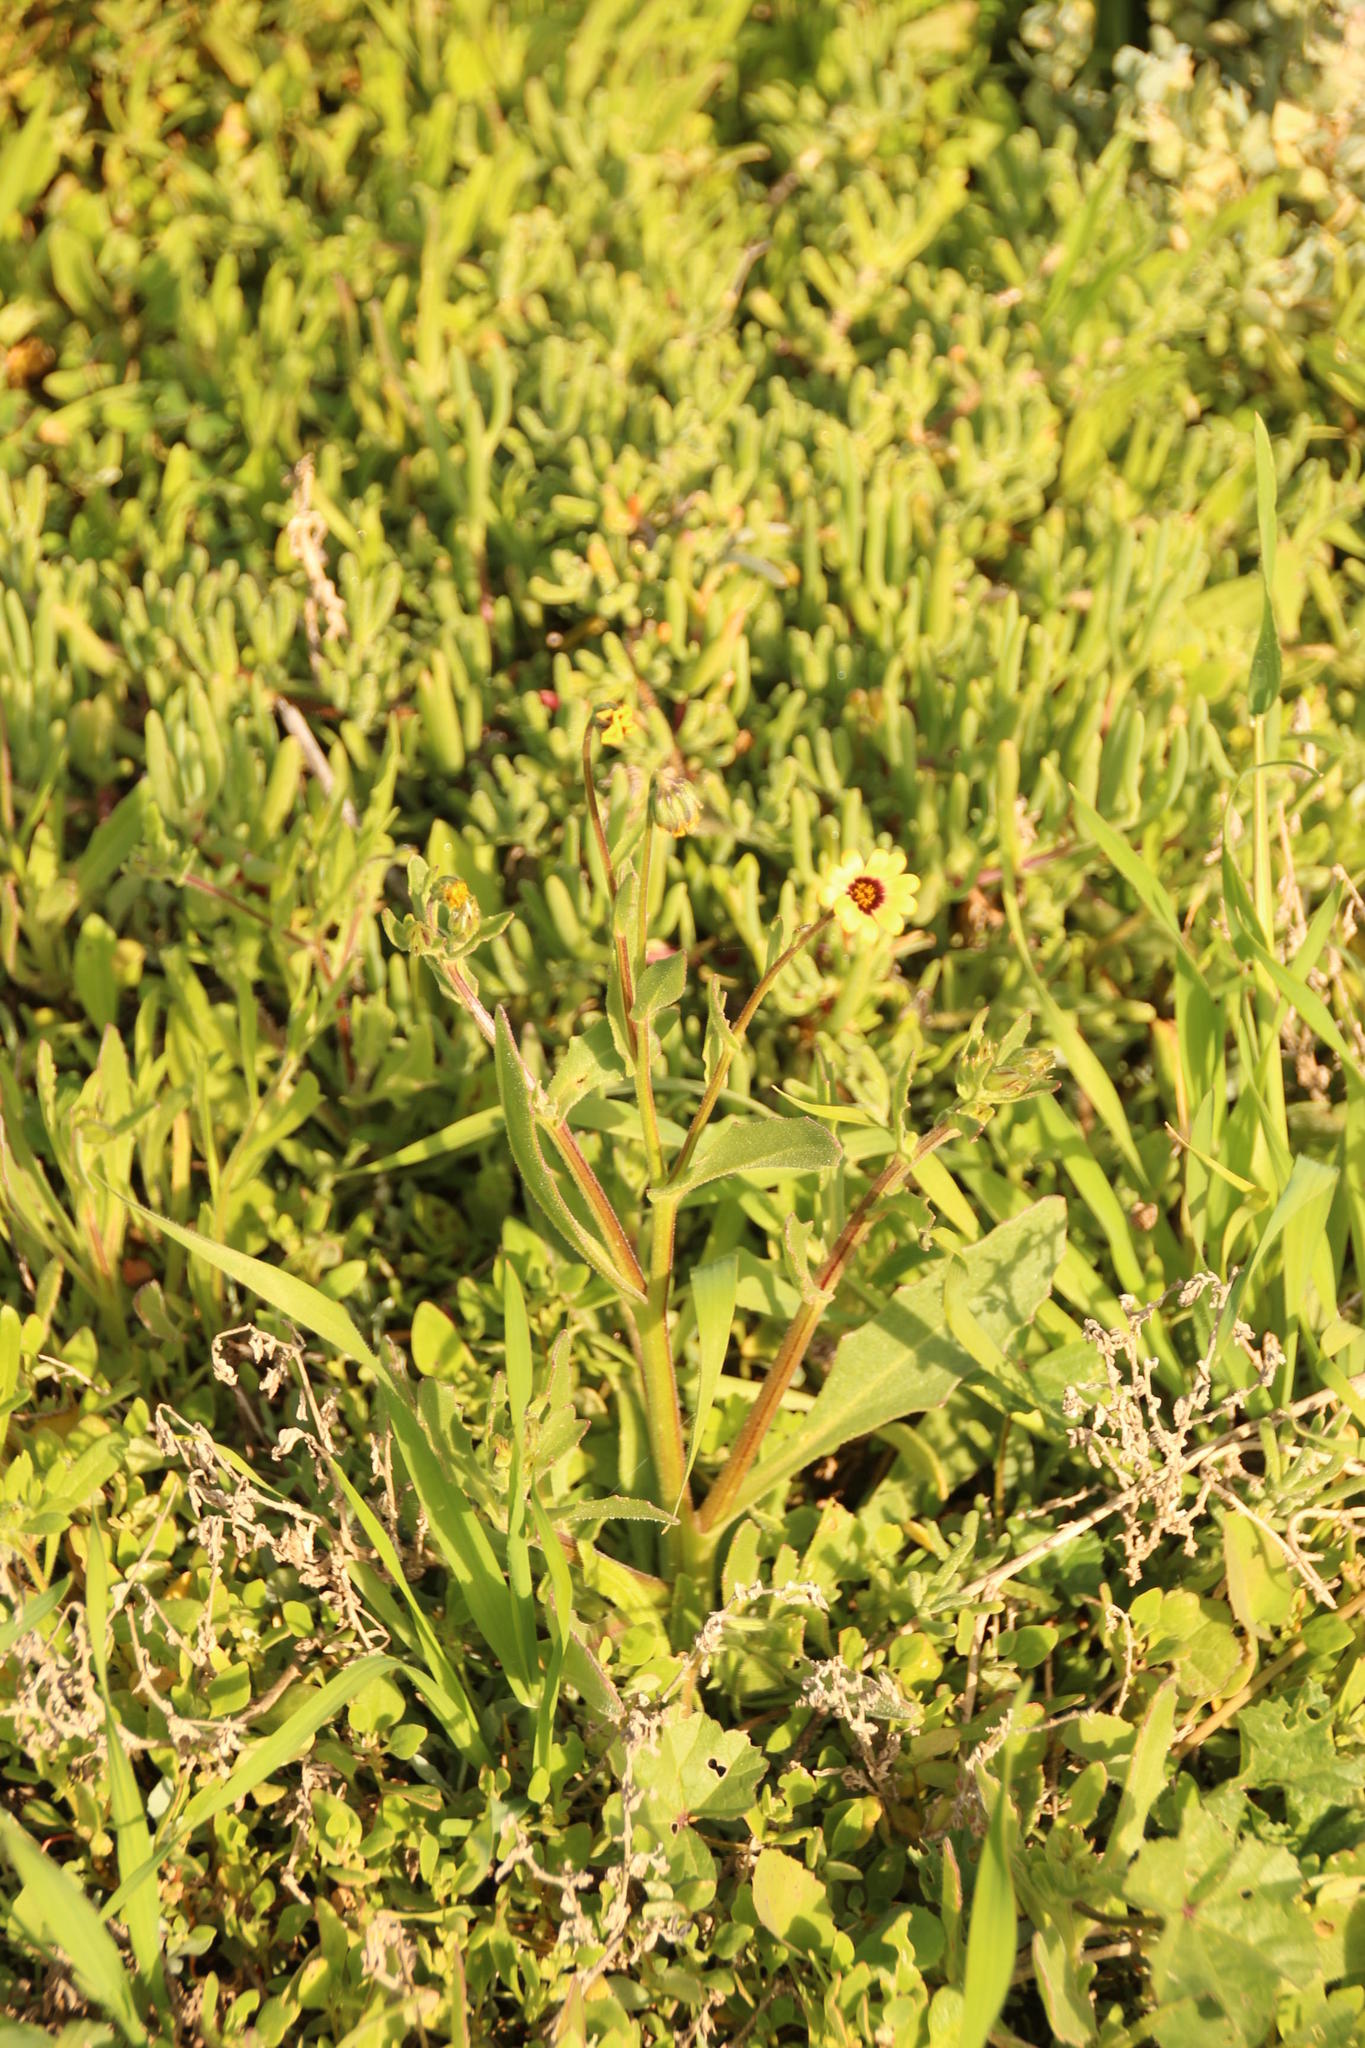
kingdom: Plantae
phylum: Tracheophyta
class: Magnoliopsida
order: Asterales
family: Asteraceae
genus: Osteospermum
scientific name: Osteospermum monstrosum
